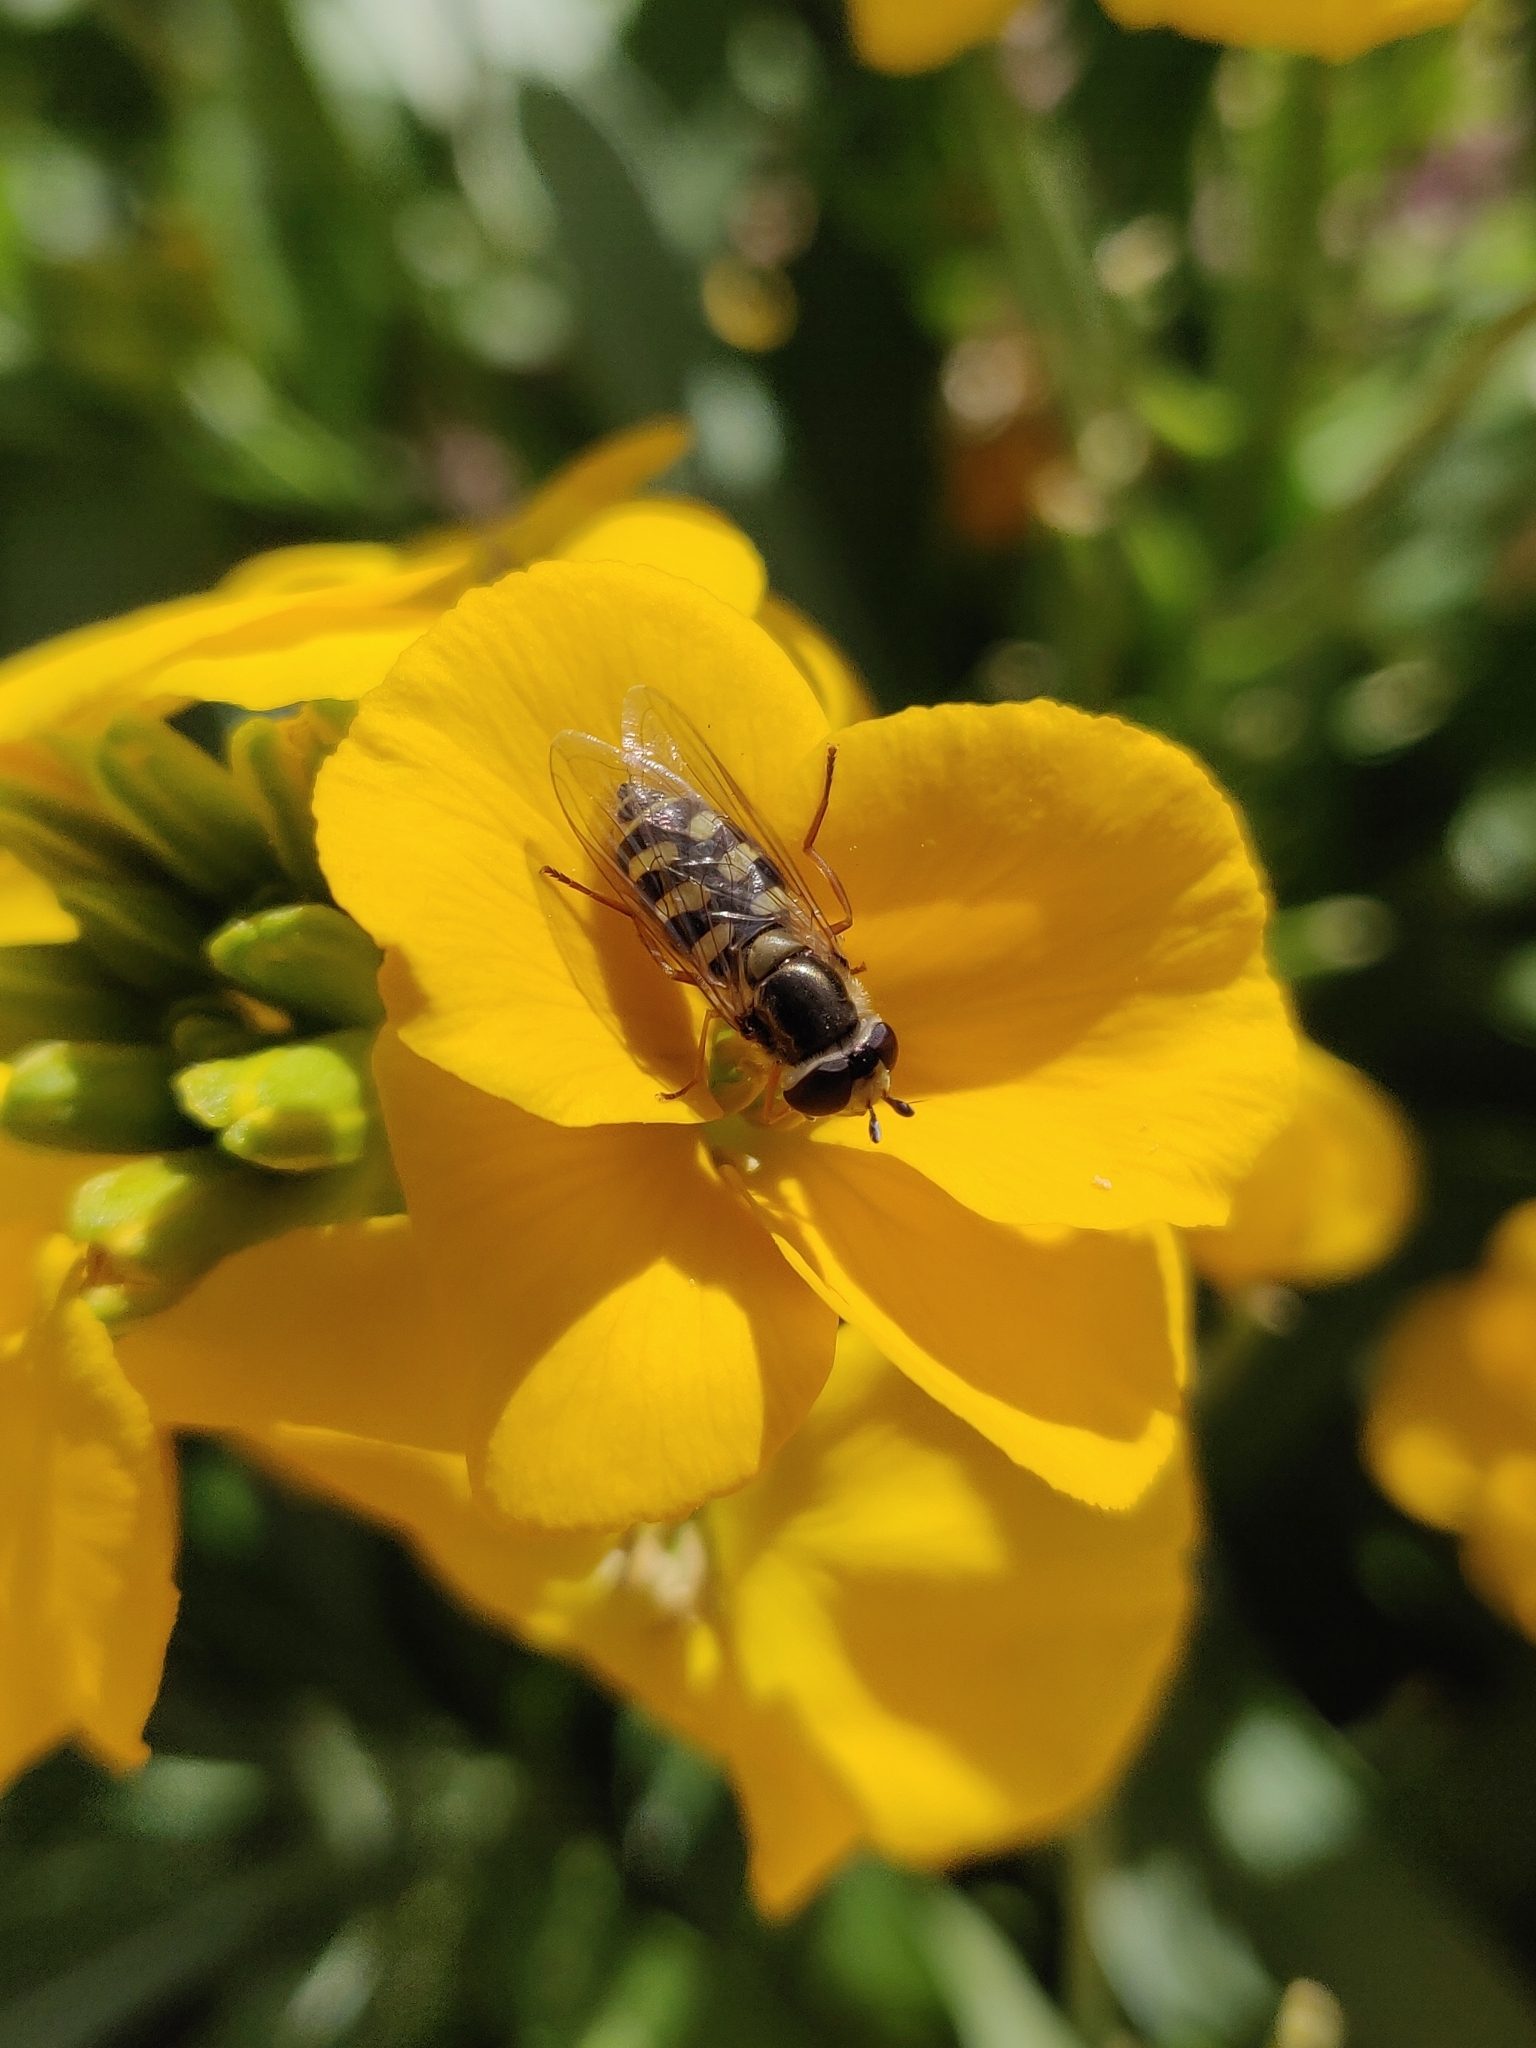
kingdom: Animalia
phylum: Arthropoda
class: Insecta
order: Diptera
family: Syrphidae
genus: Eupeodes
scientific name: Eupeodes corollae
